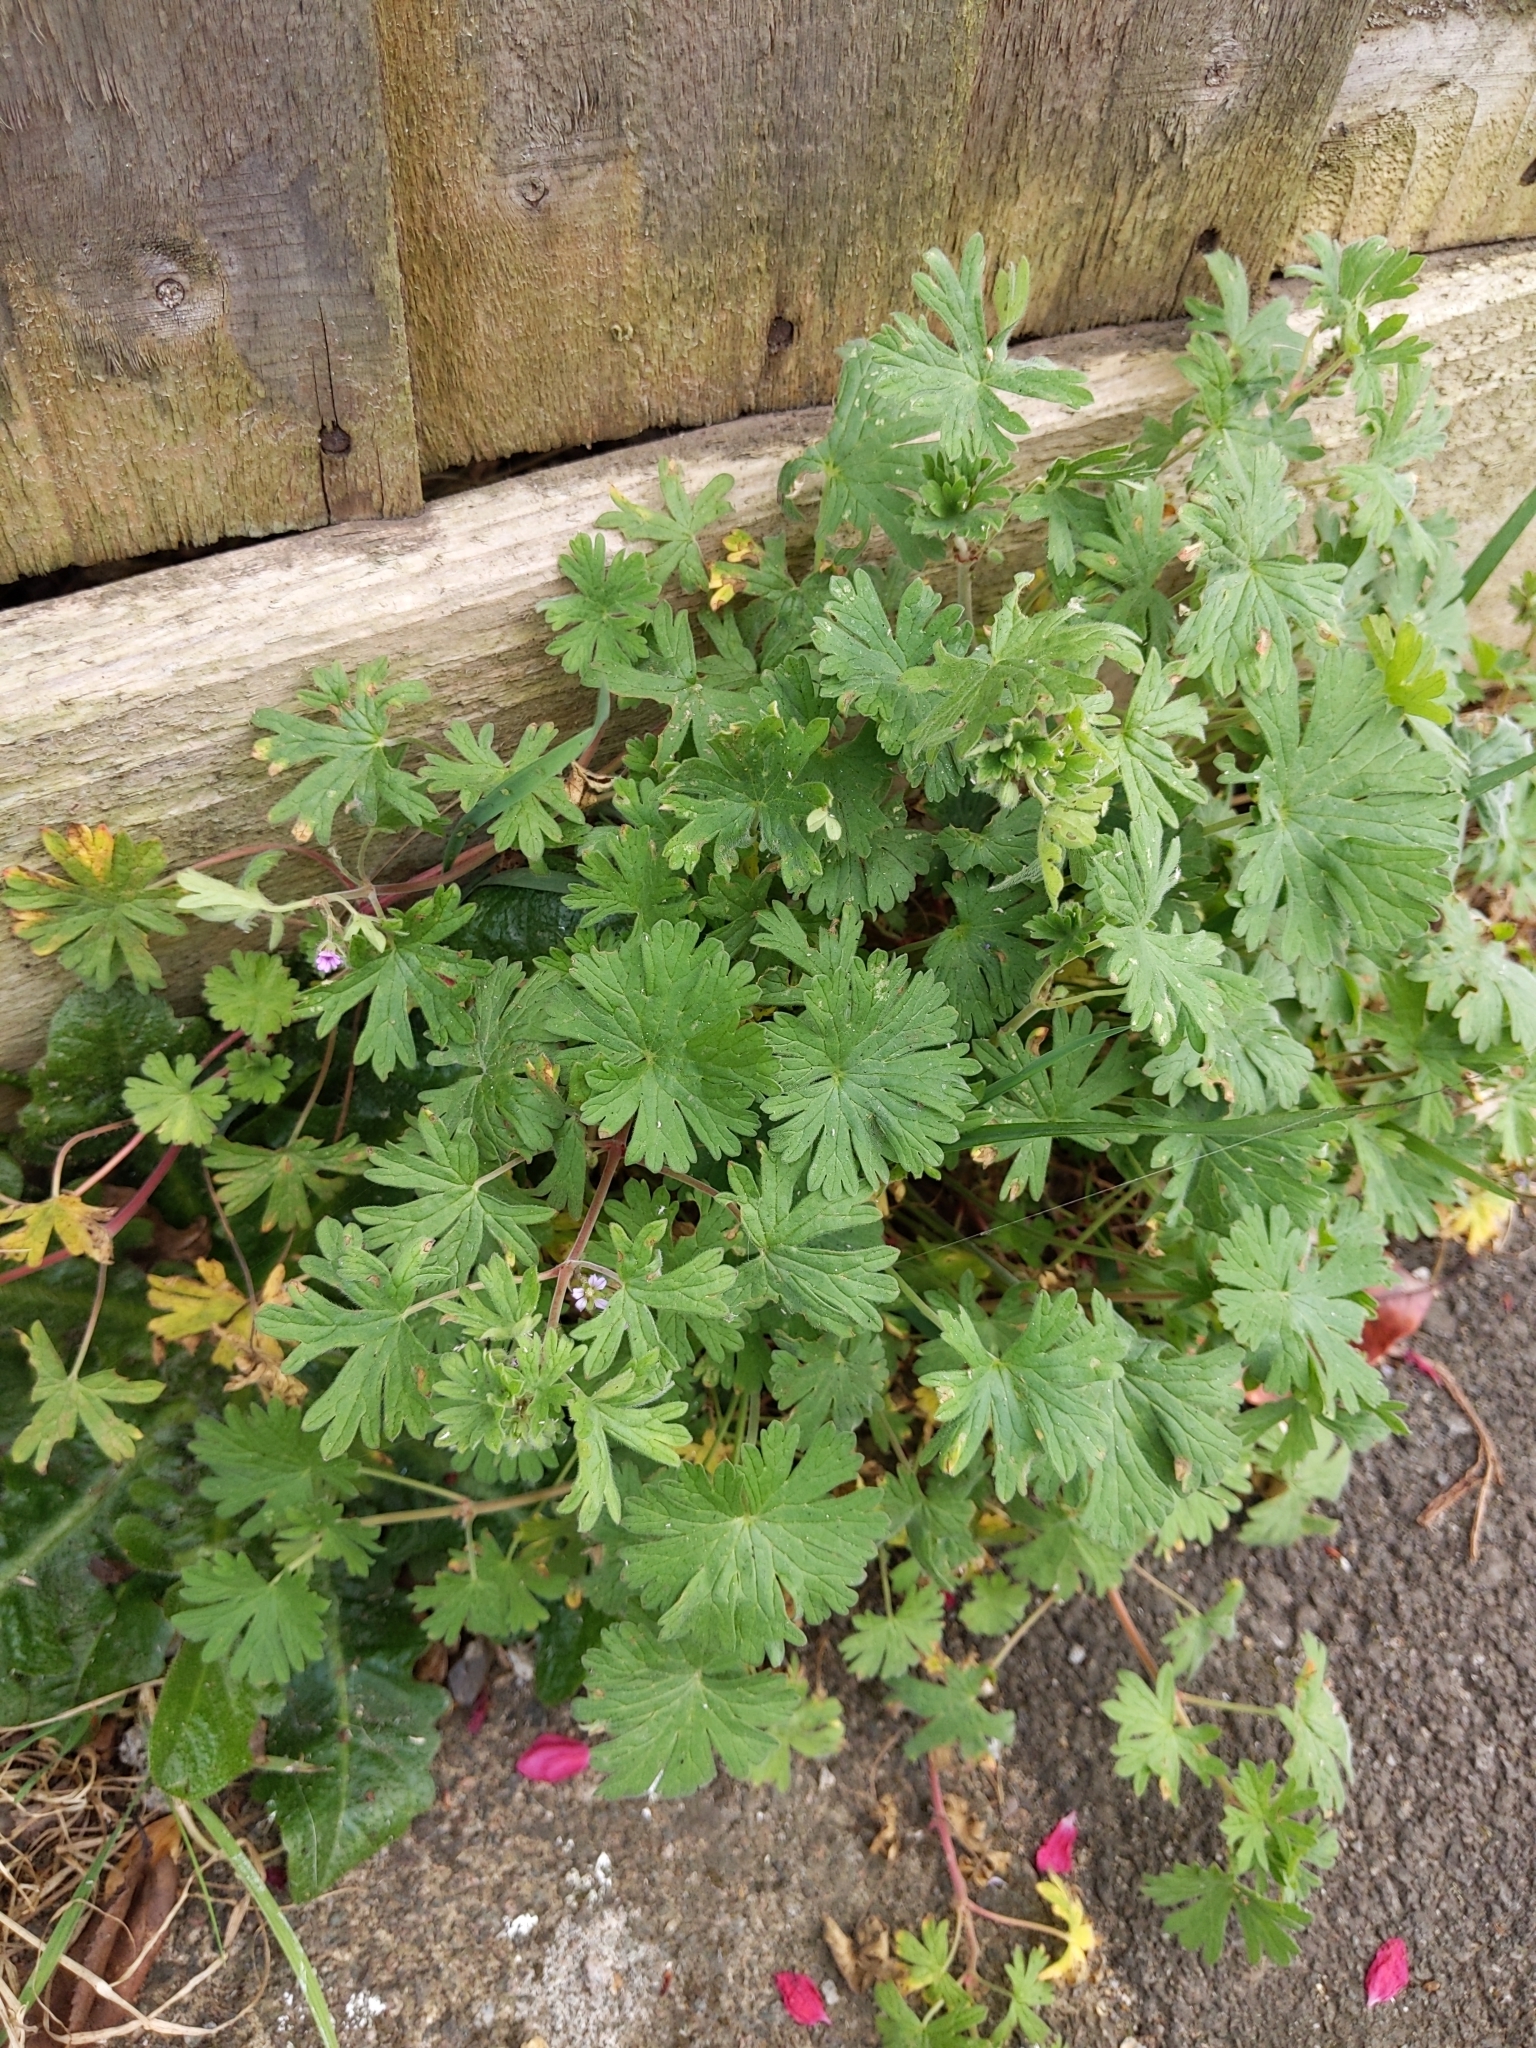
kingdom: Plantae
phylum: Tracheophyta
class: Magnoliopsida
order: Geraniales
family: Geraniaceae
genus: Geranium
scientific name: Geranium pusillum
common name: Small geranium
